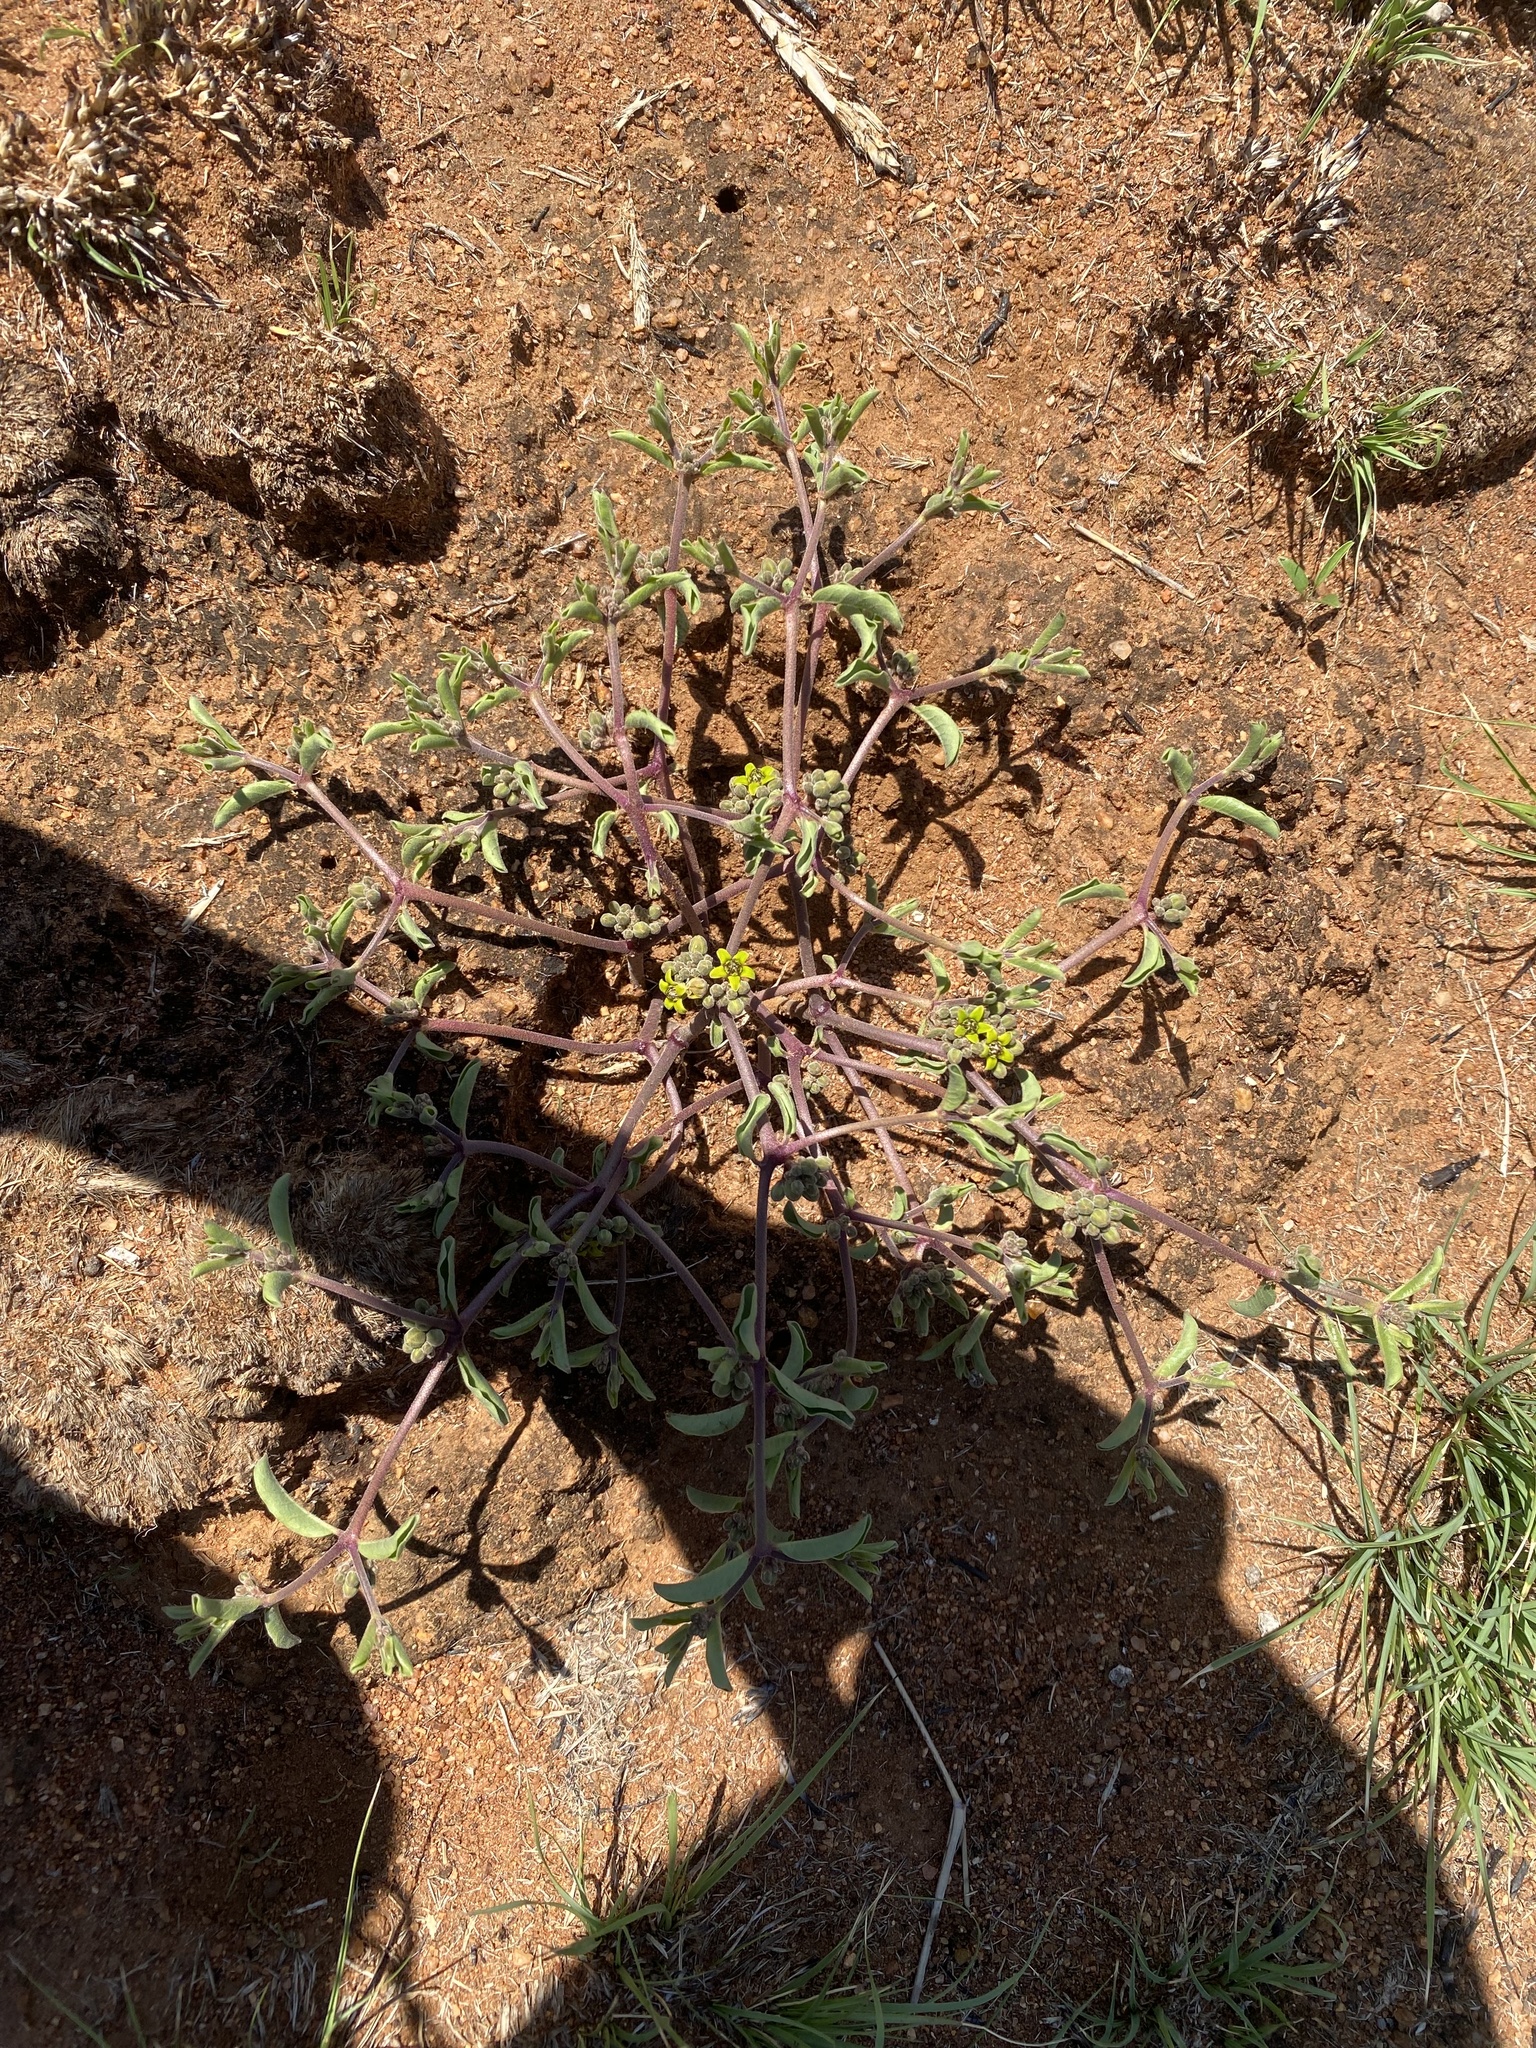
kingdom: Plantae
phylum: Tracheophyta
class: Magnoliopsida
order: Gentianales
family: Apocynaceae
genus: Raphionacme
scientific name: Raphionacme velutina
